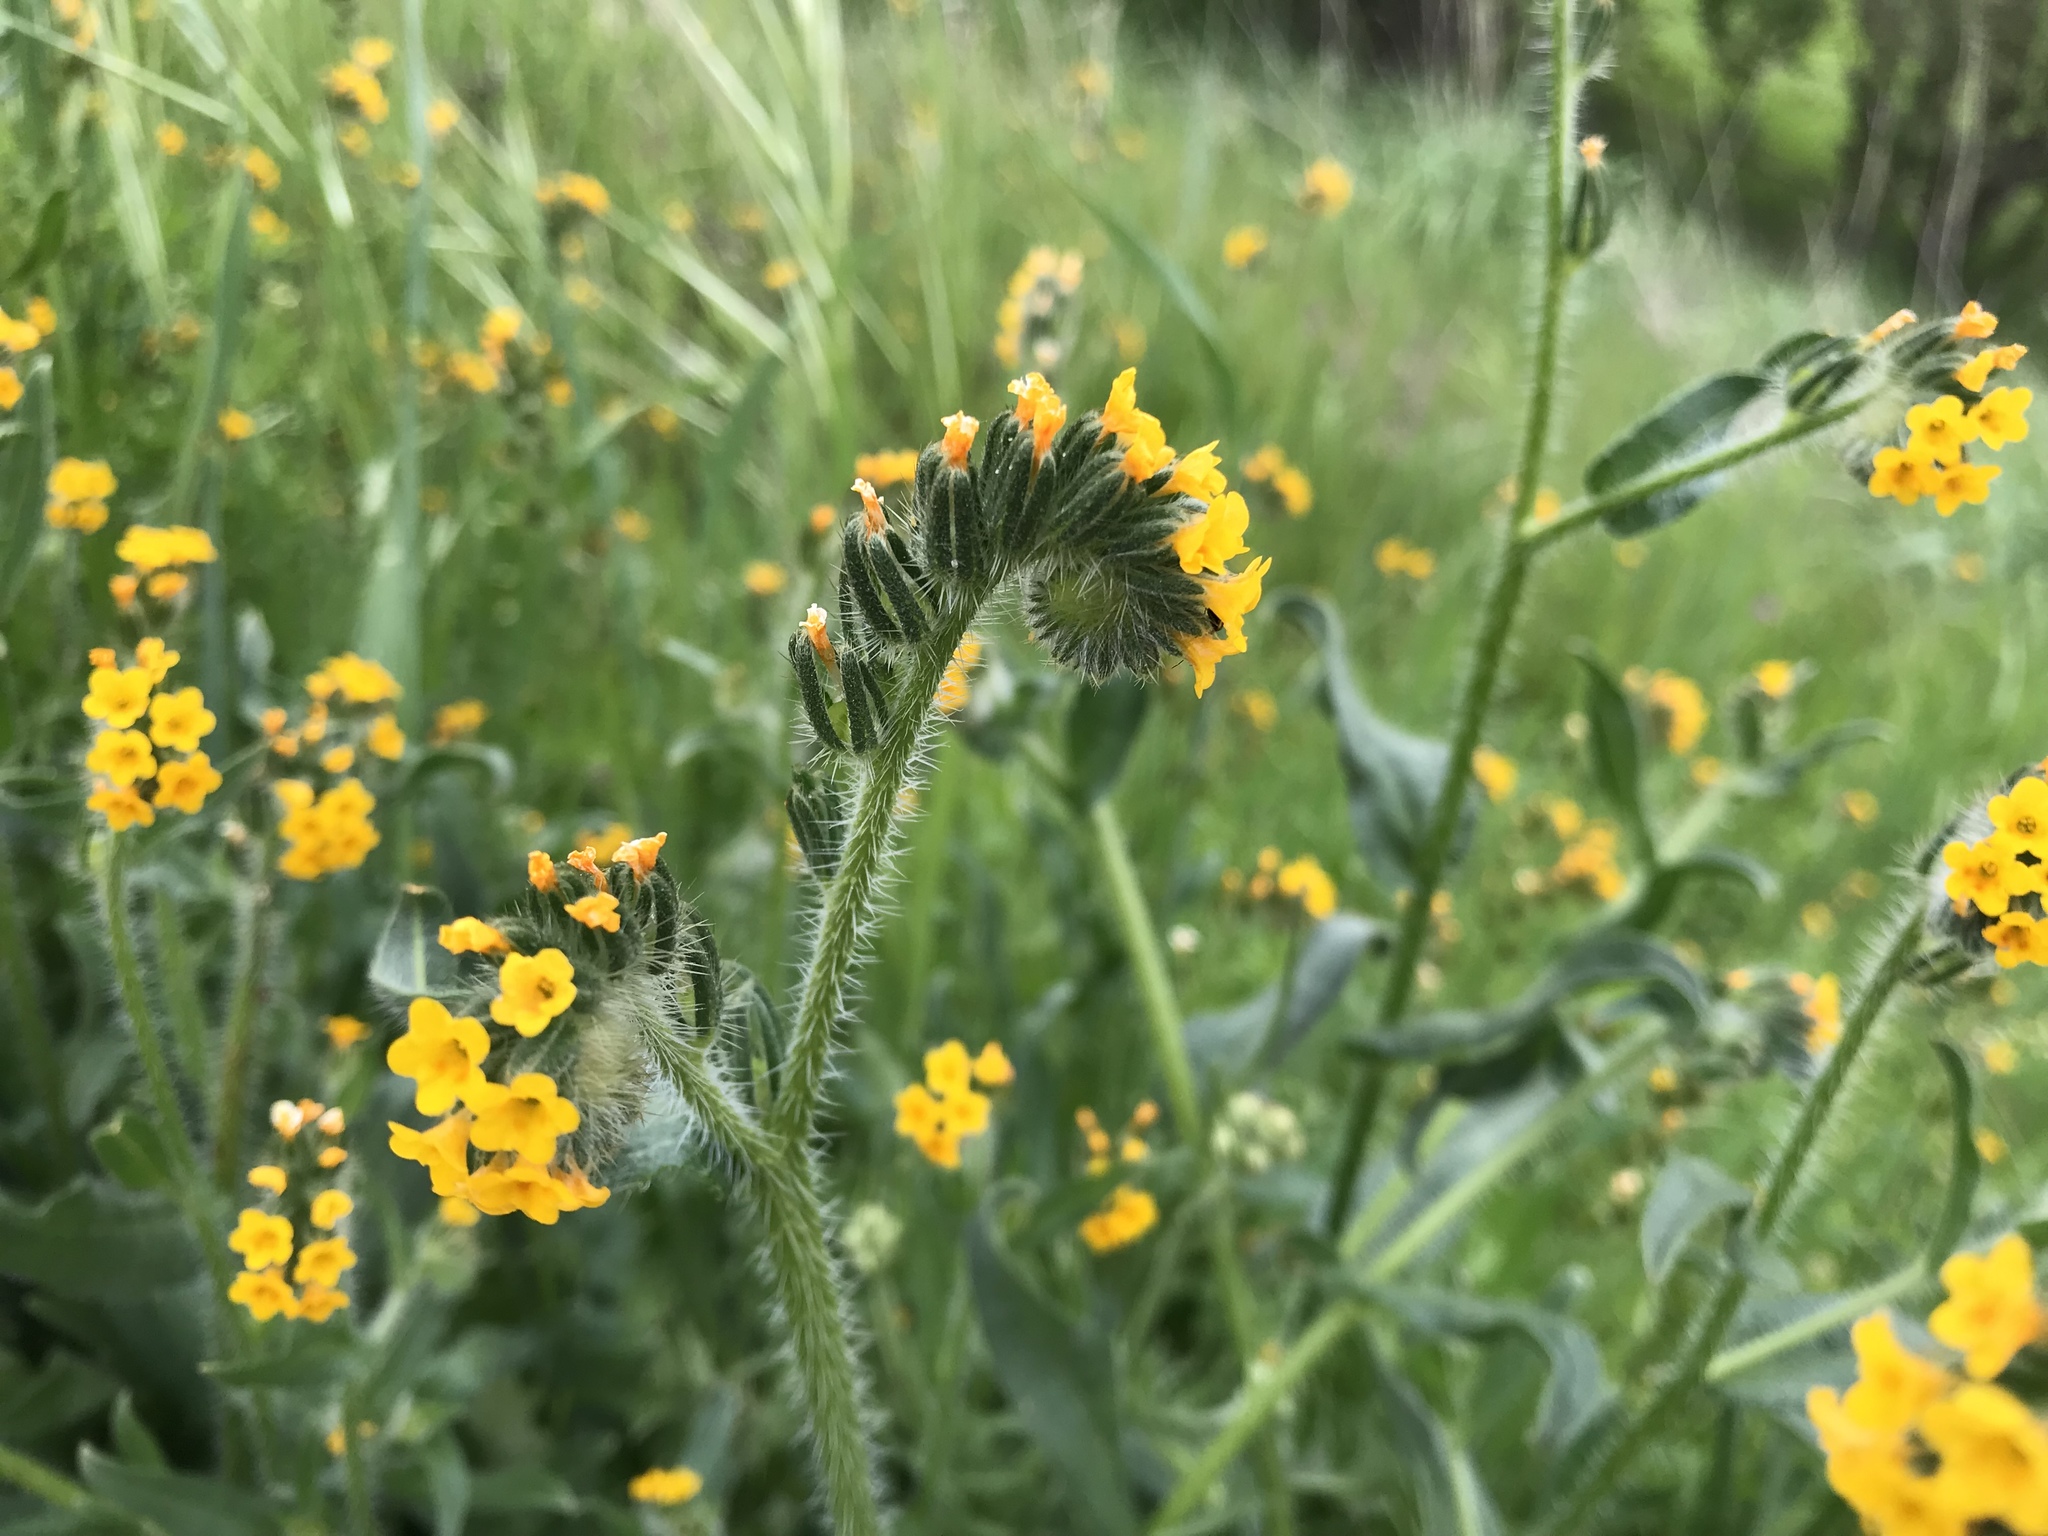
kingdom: Plantae
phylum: Tracheophyta
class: Magnoliopsida
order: Boraginales
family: Boraginaceae
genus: Amsinckia
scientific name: Amsinckia menziesii
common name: Menzies' fiddleneck
